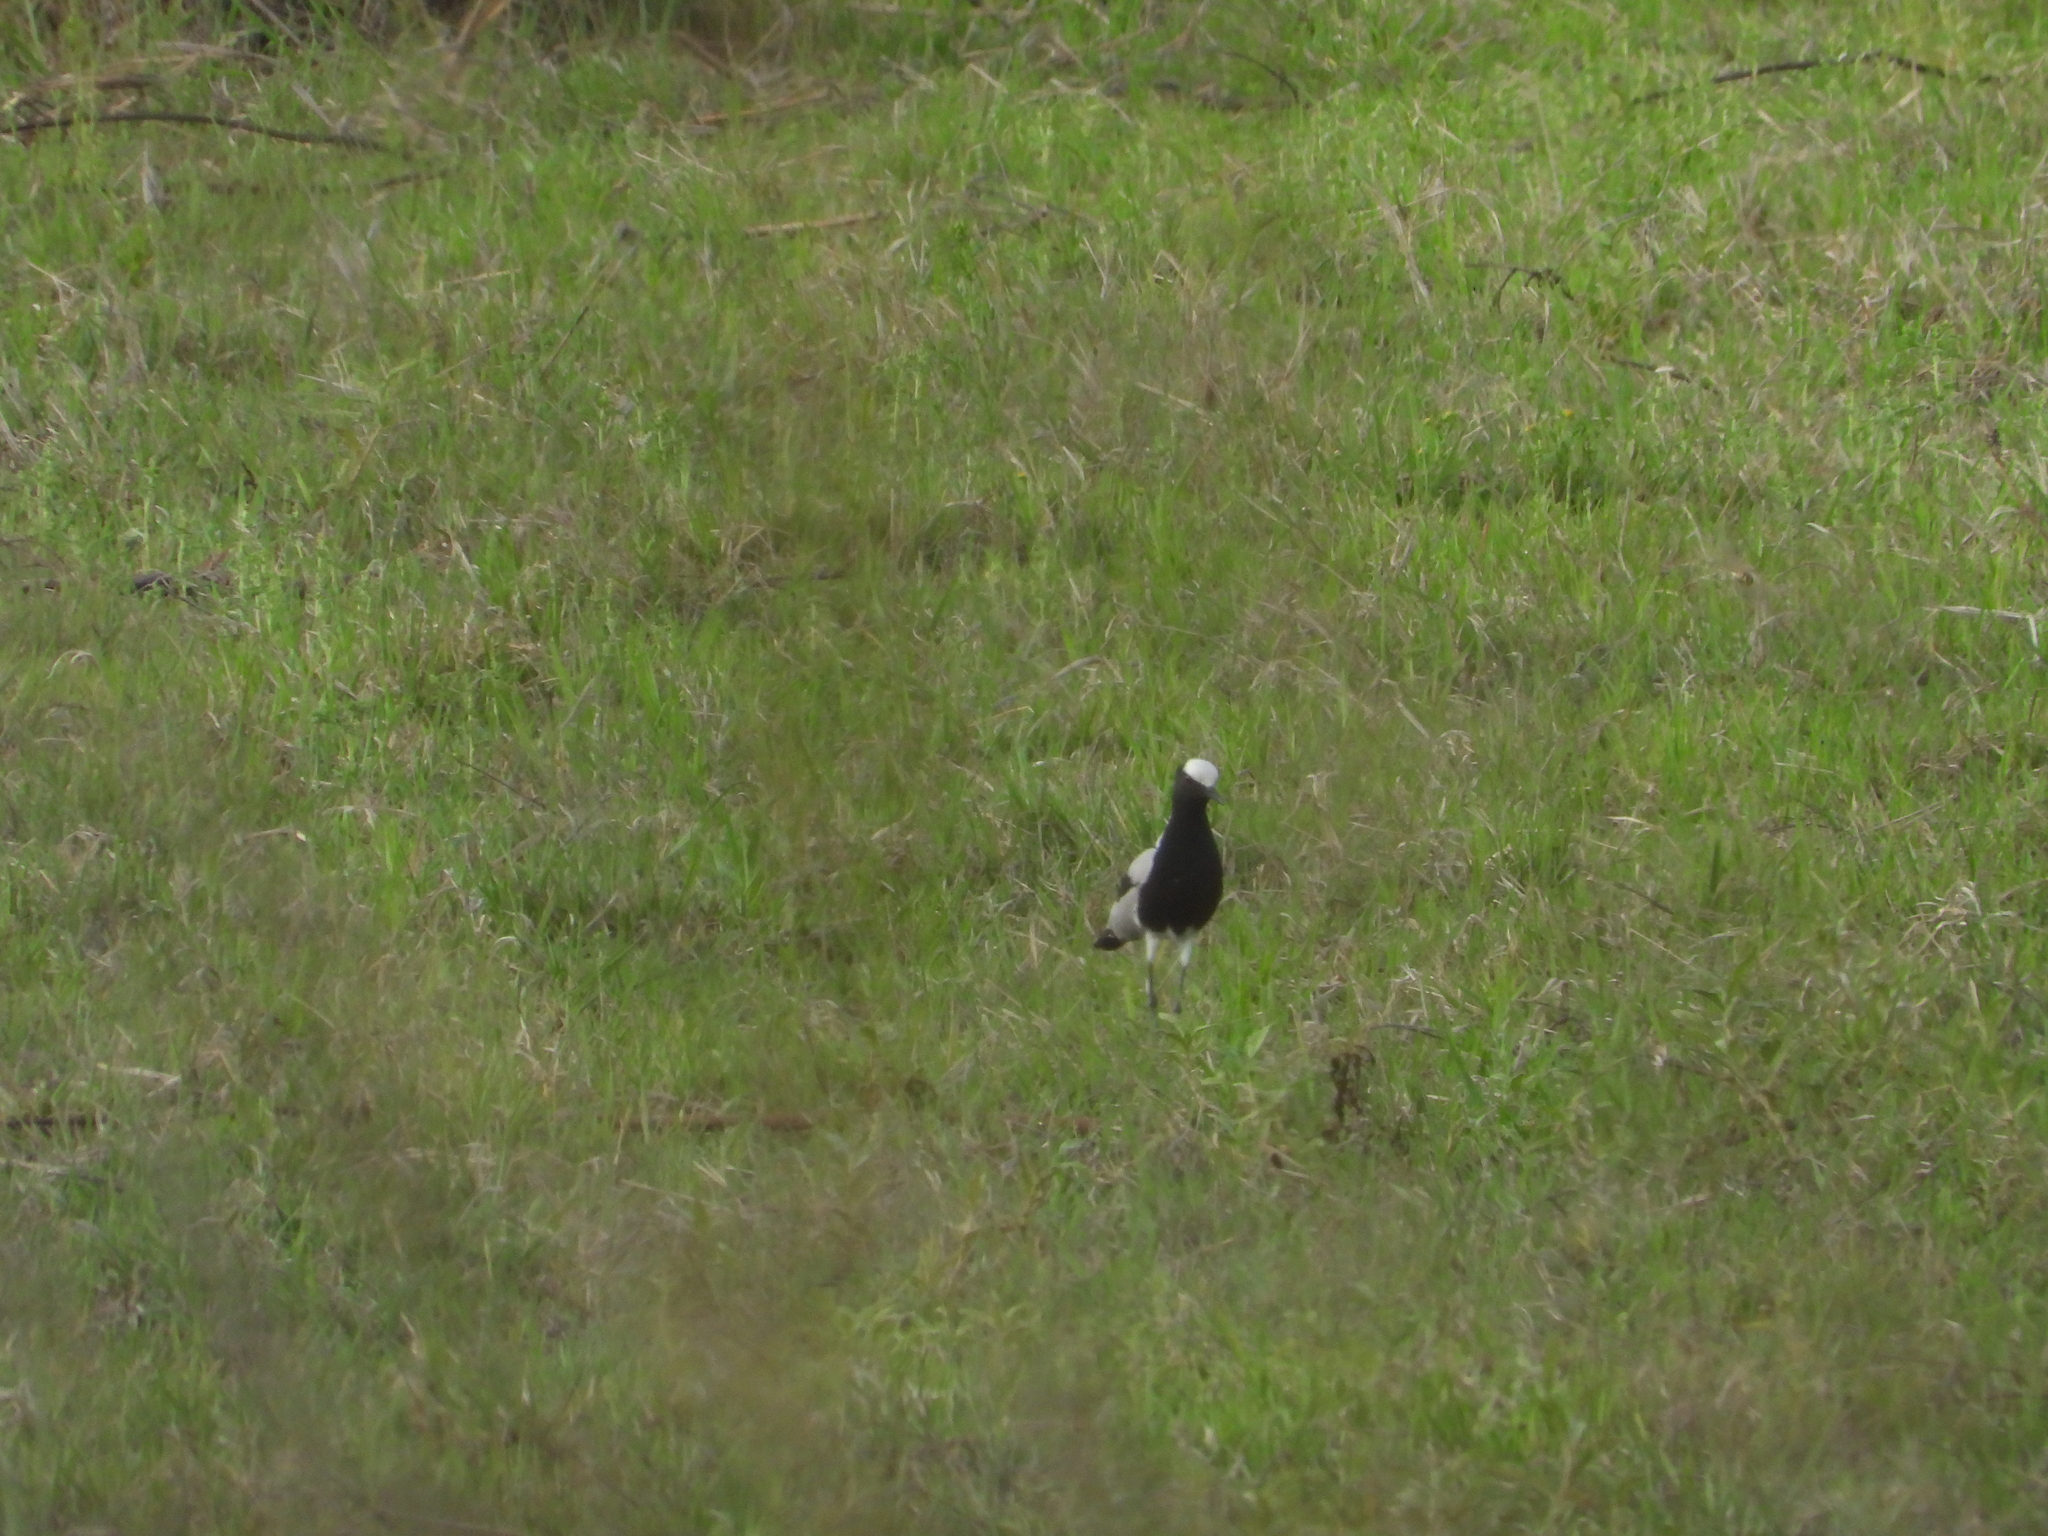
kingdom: Animalia
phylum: Chordata
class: Aves
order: Charadriiformes
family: Charadriidae
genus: Vanellus
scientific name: Vanellus armatus
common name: Blacksmith lapwing
